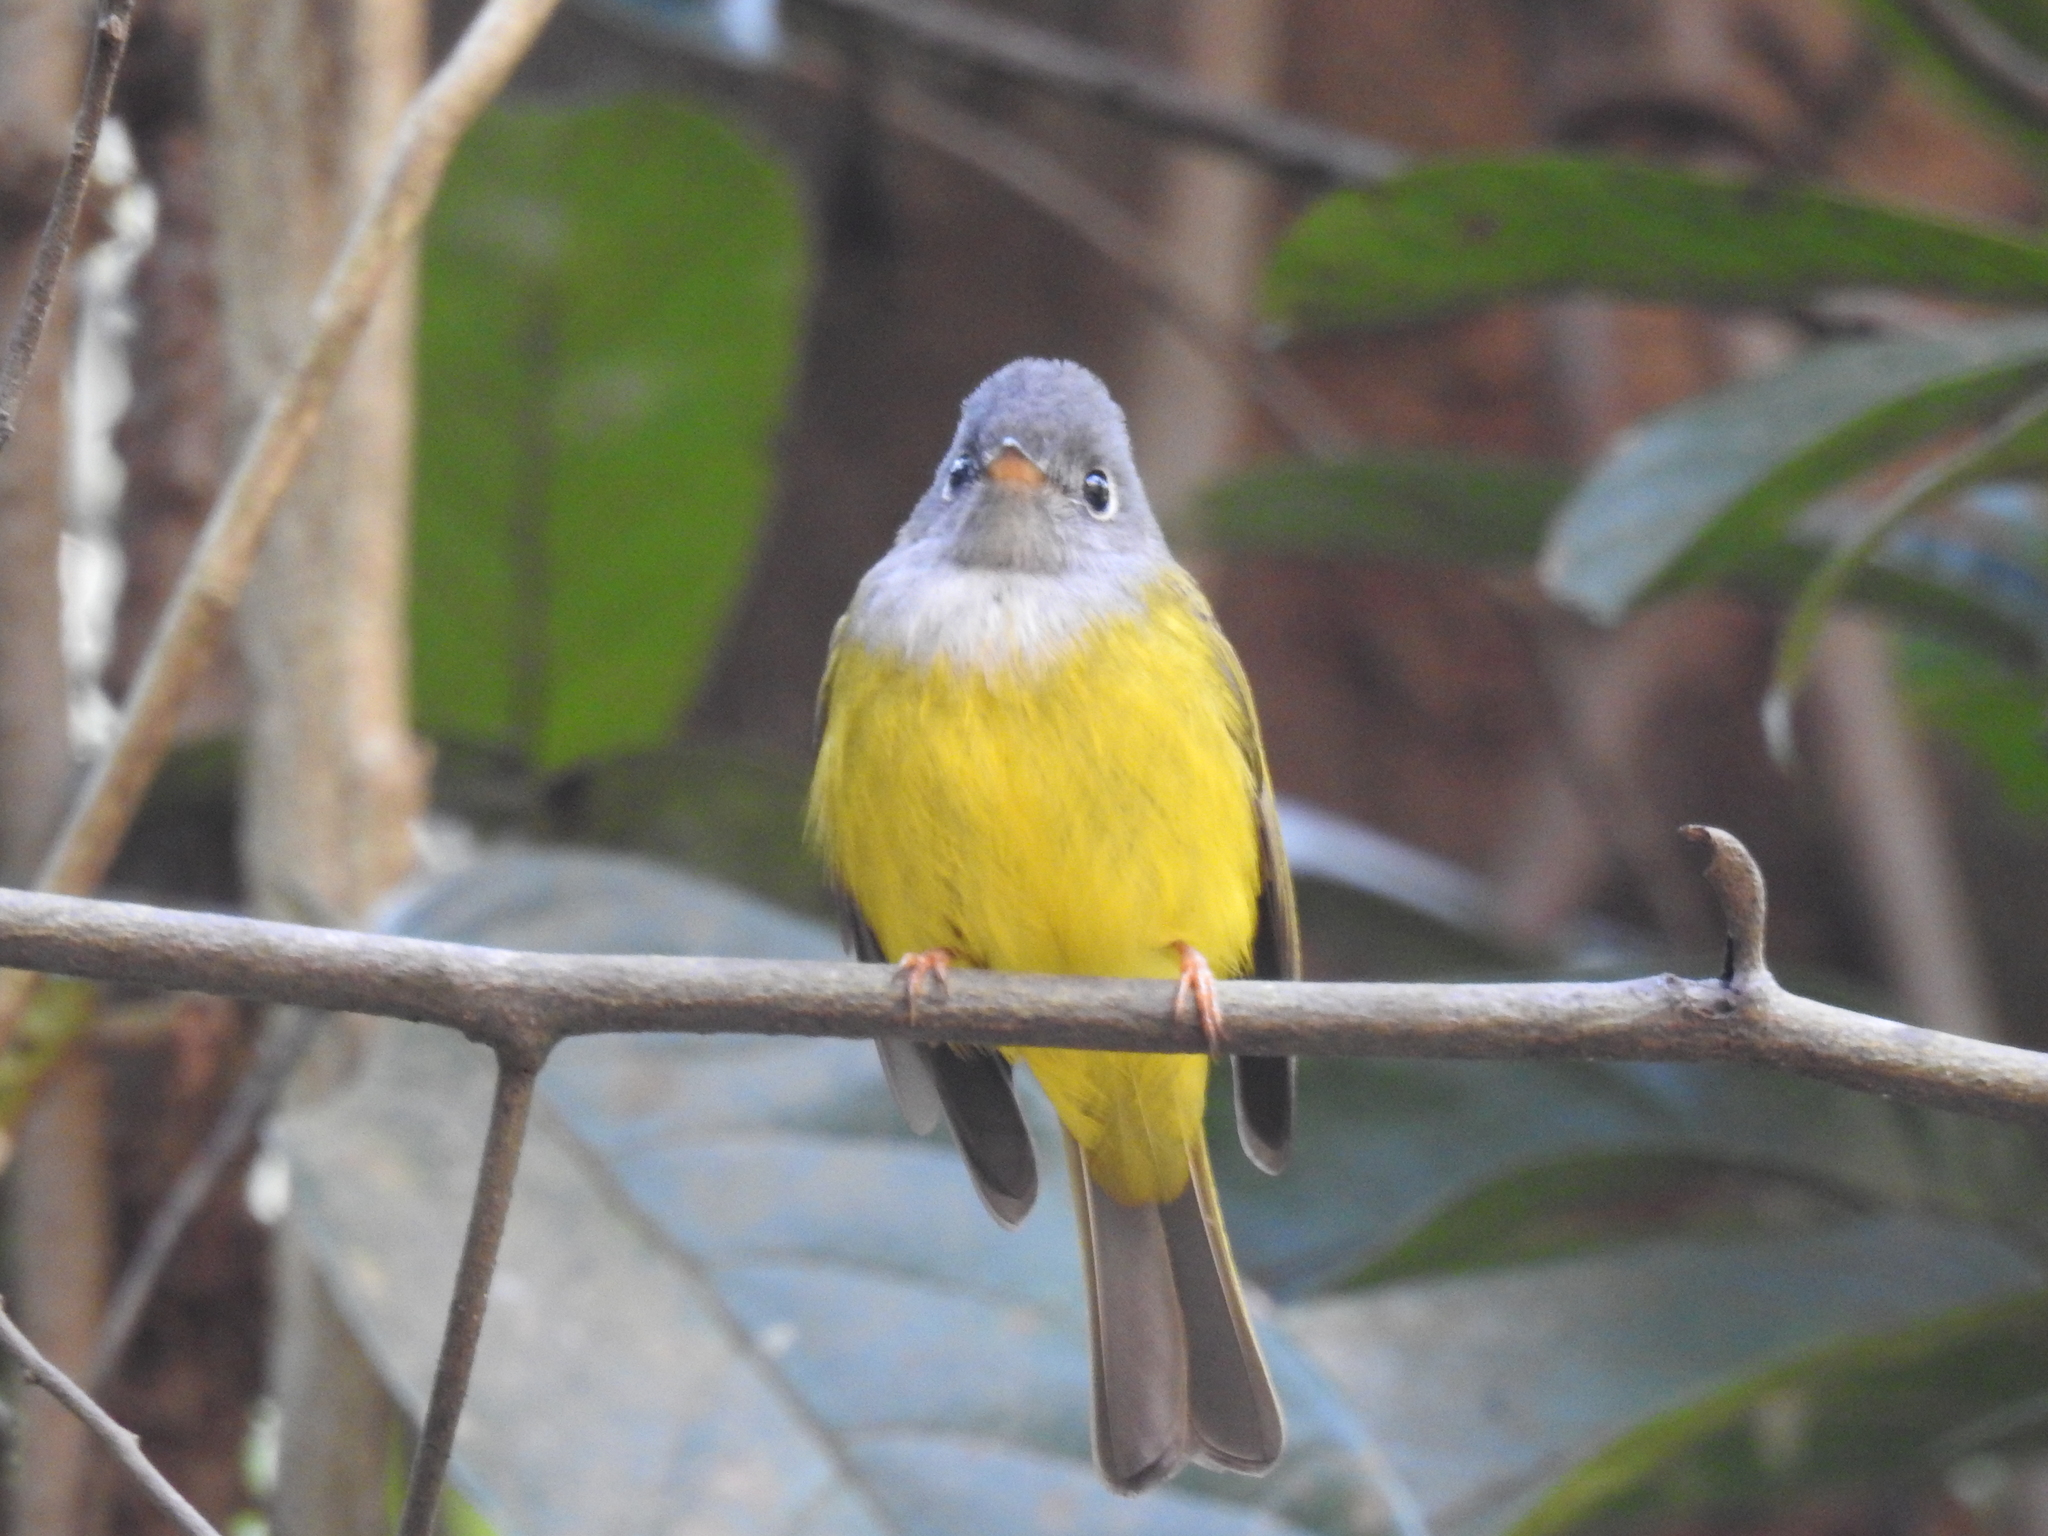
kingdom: Animalia
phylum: Chordata
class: Aves
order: Passeriformes
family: Stenostiridae
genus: Culicicapa
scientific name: Culicicapa ceylonensis
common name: Grey-headed canary-flycatcher
